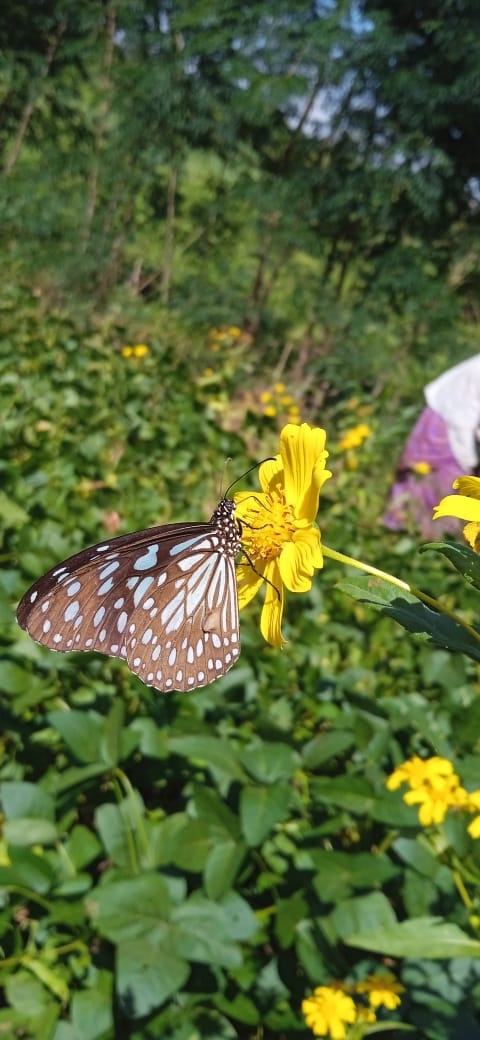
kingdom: Animalia
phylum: Arthropoda
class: Insecta
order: Lepidoptera
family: Nymphalidae
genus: Tirumala
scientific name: Tirumala limniace
